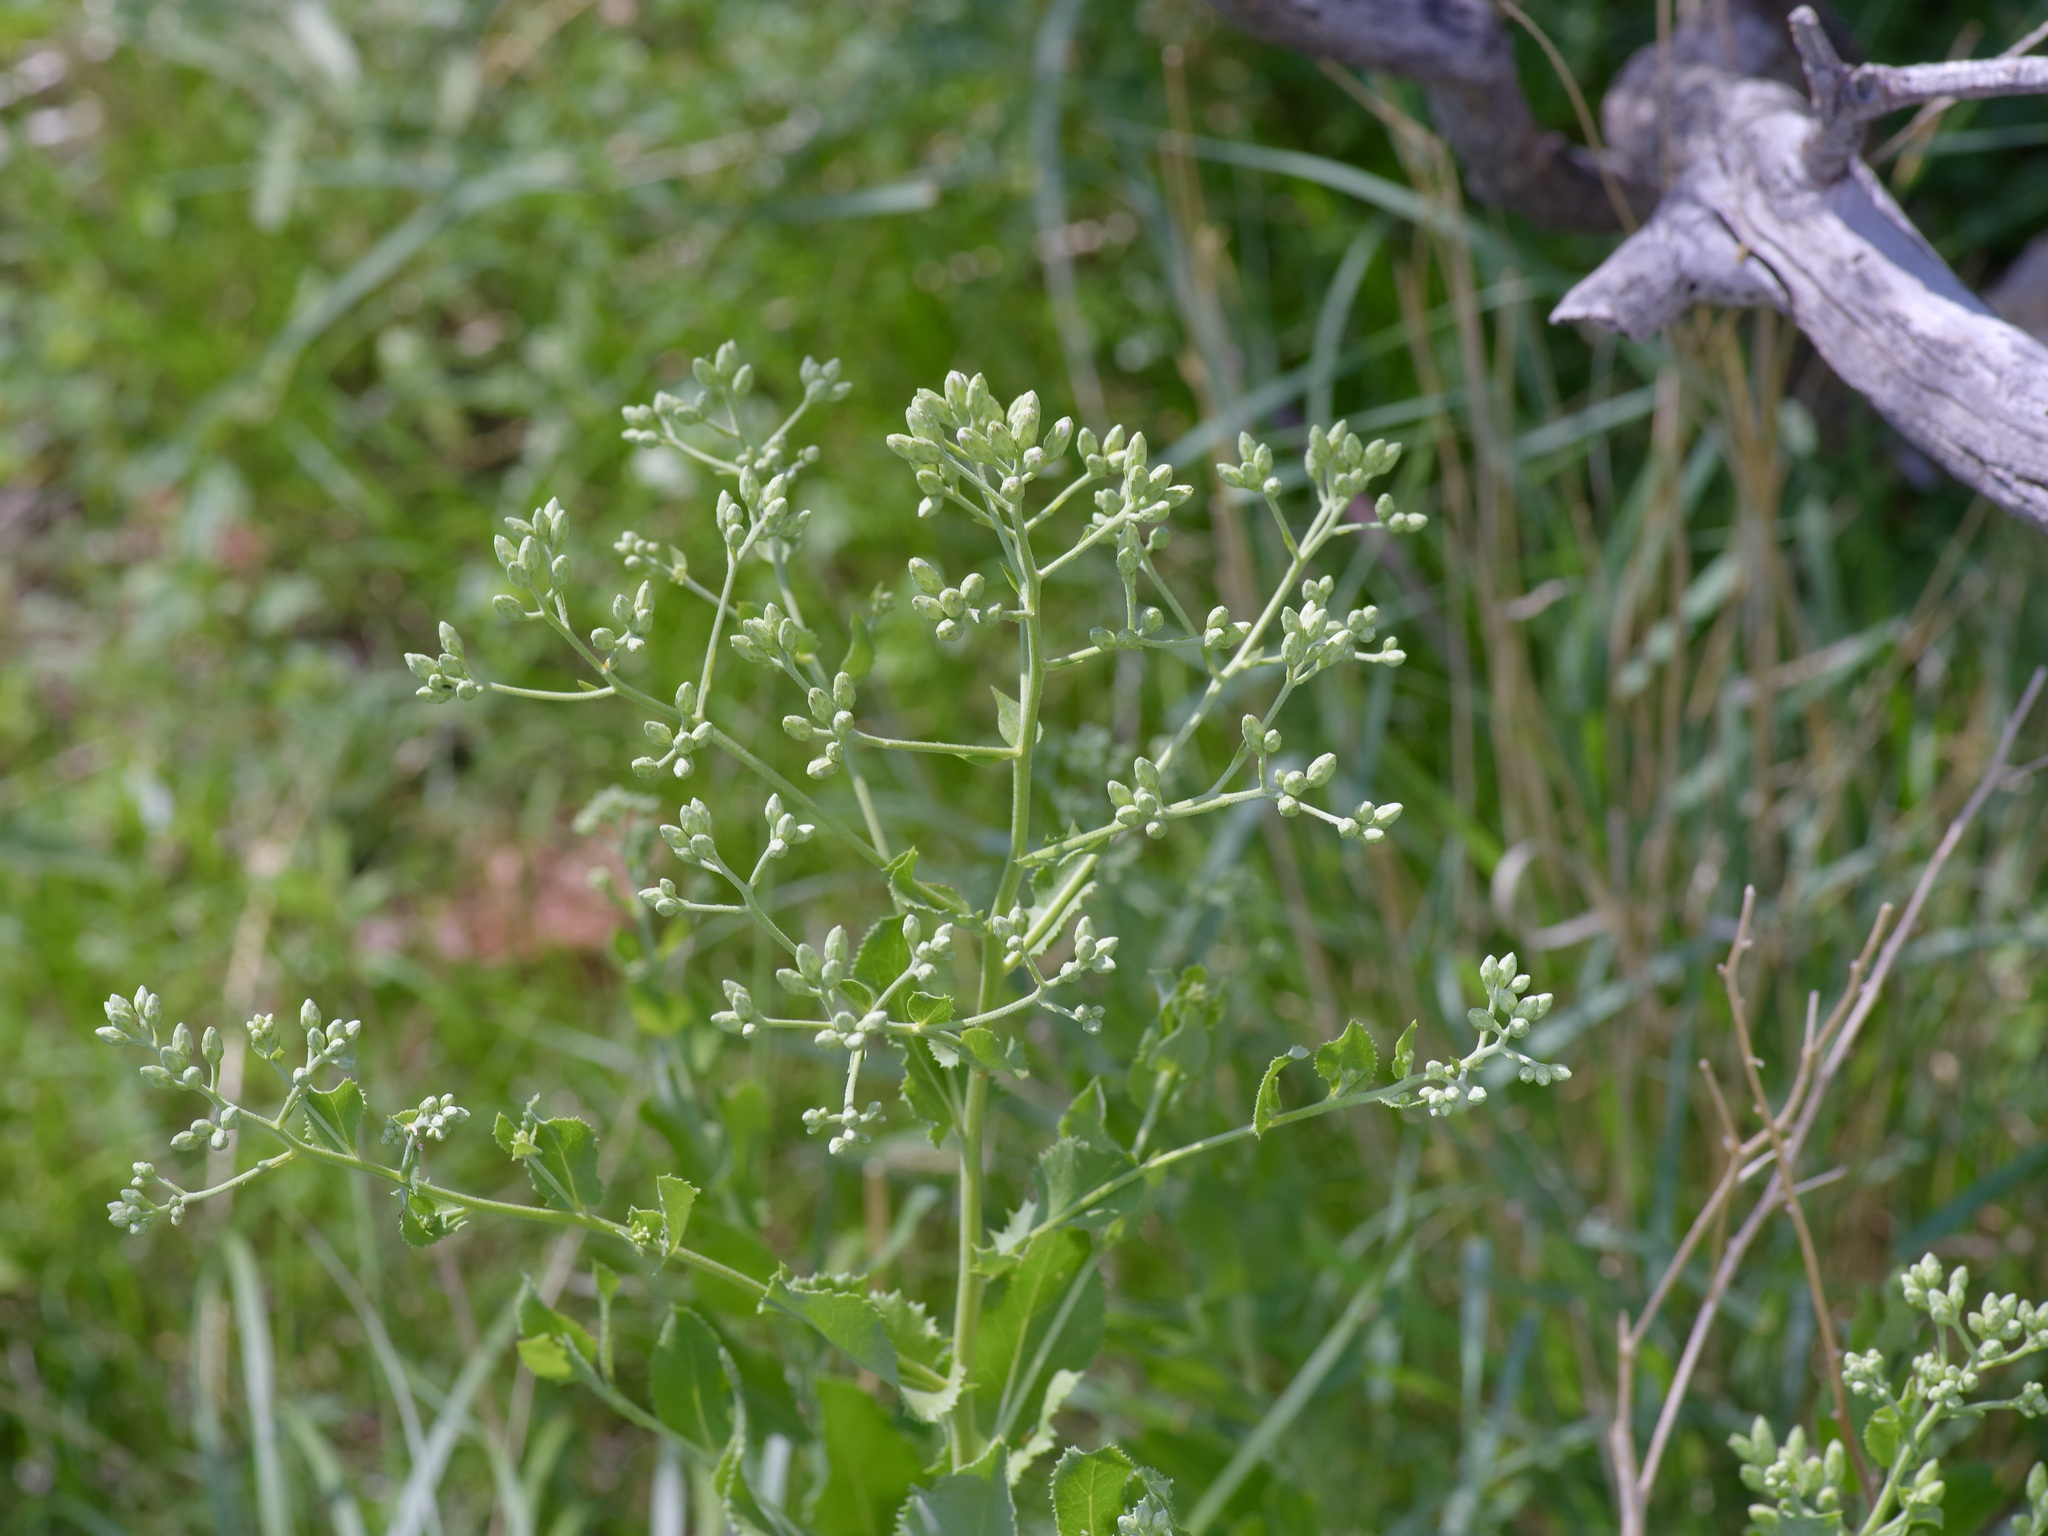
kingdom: Plantae
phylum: Tracheophyta
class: Magnoliopsida
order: Asterales
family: Asteraceae
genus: Acourtia
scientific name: Acourtia wrightii
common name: Brownfoot
